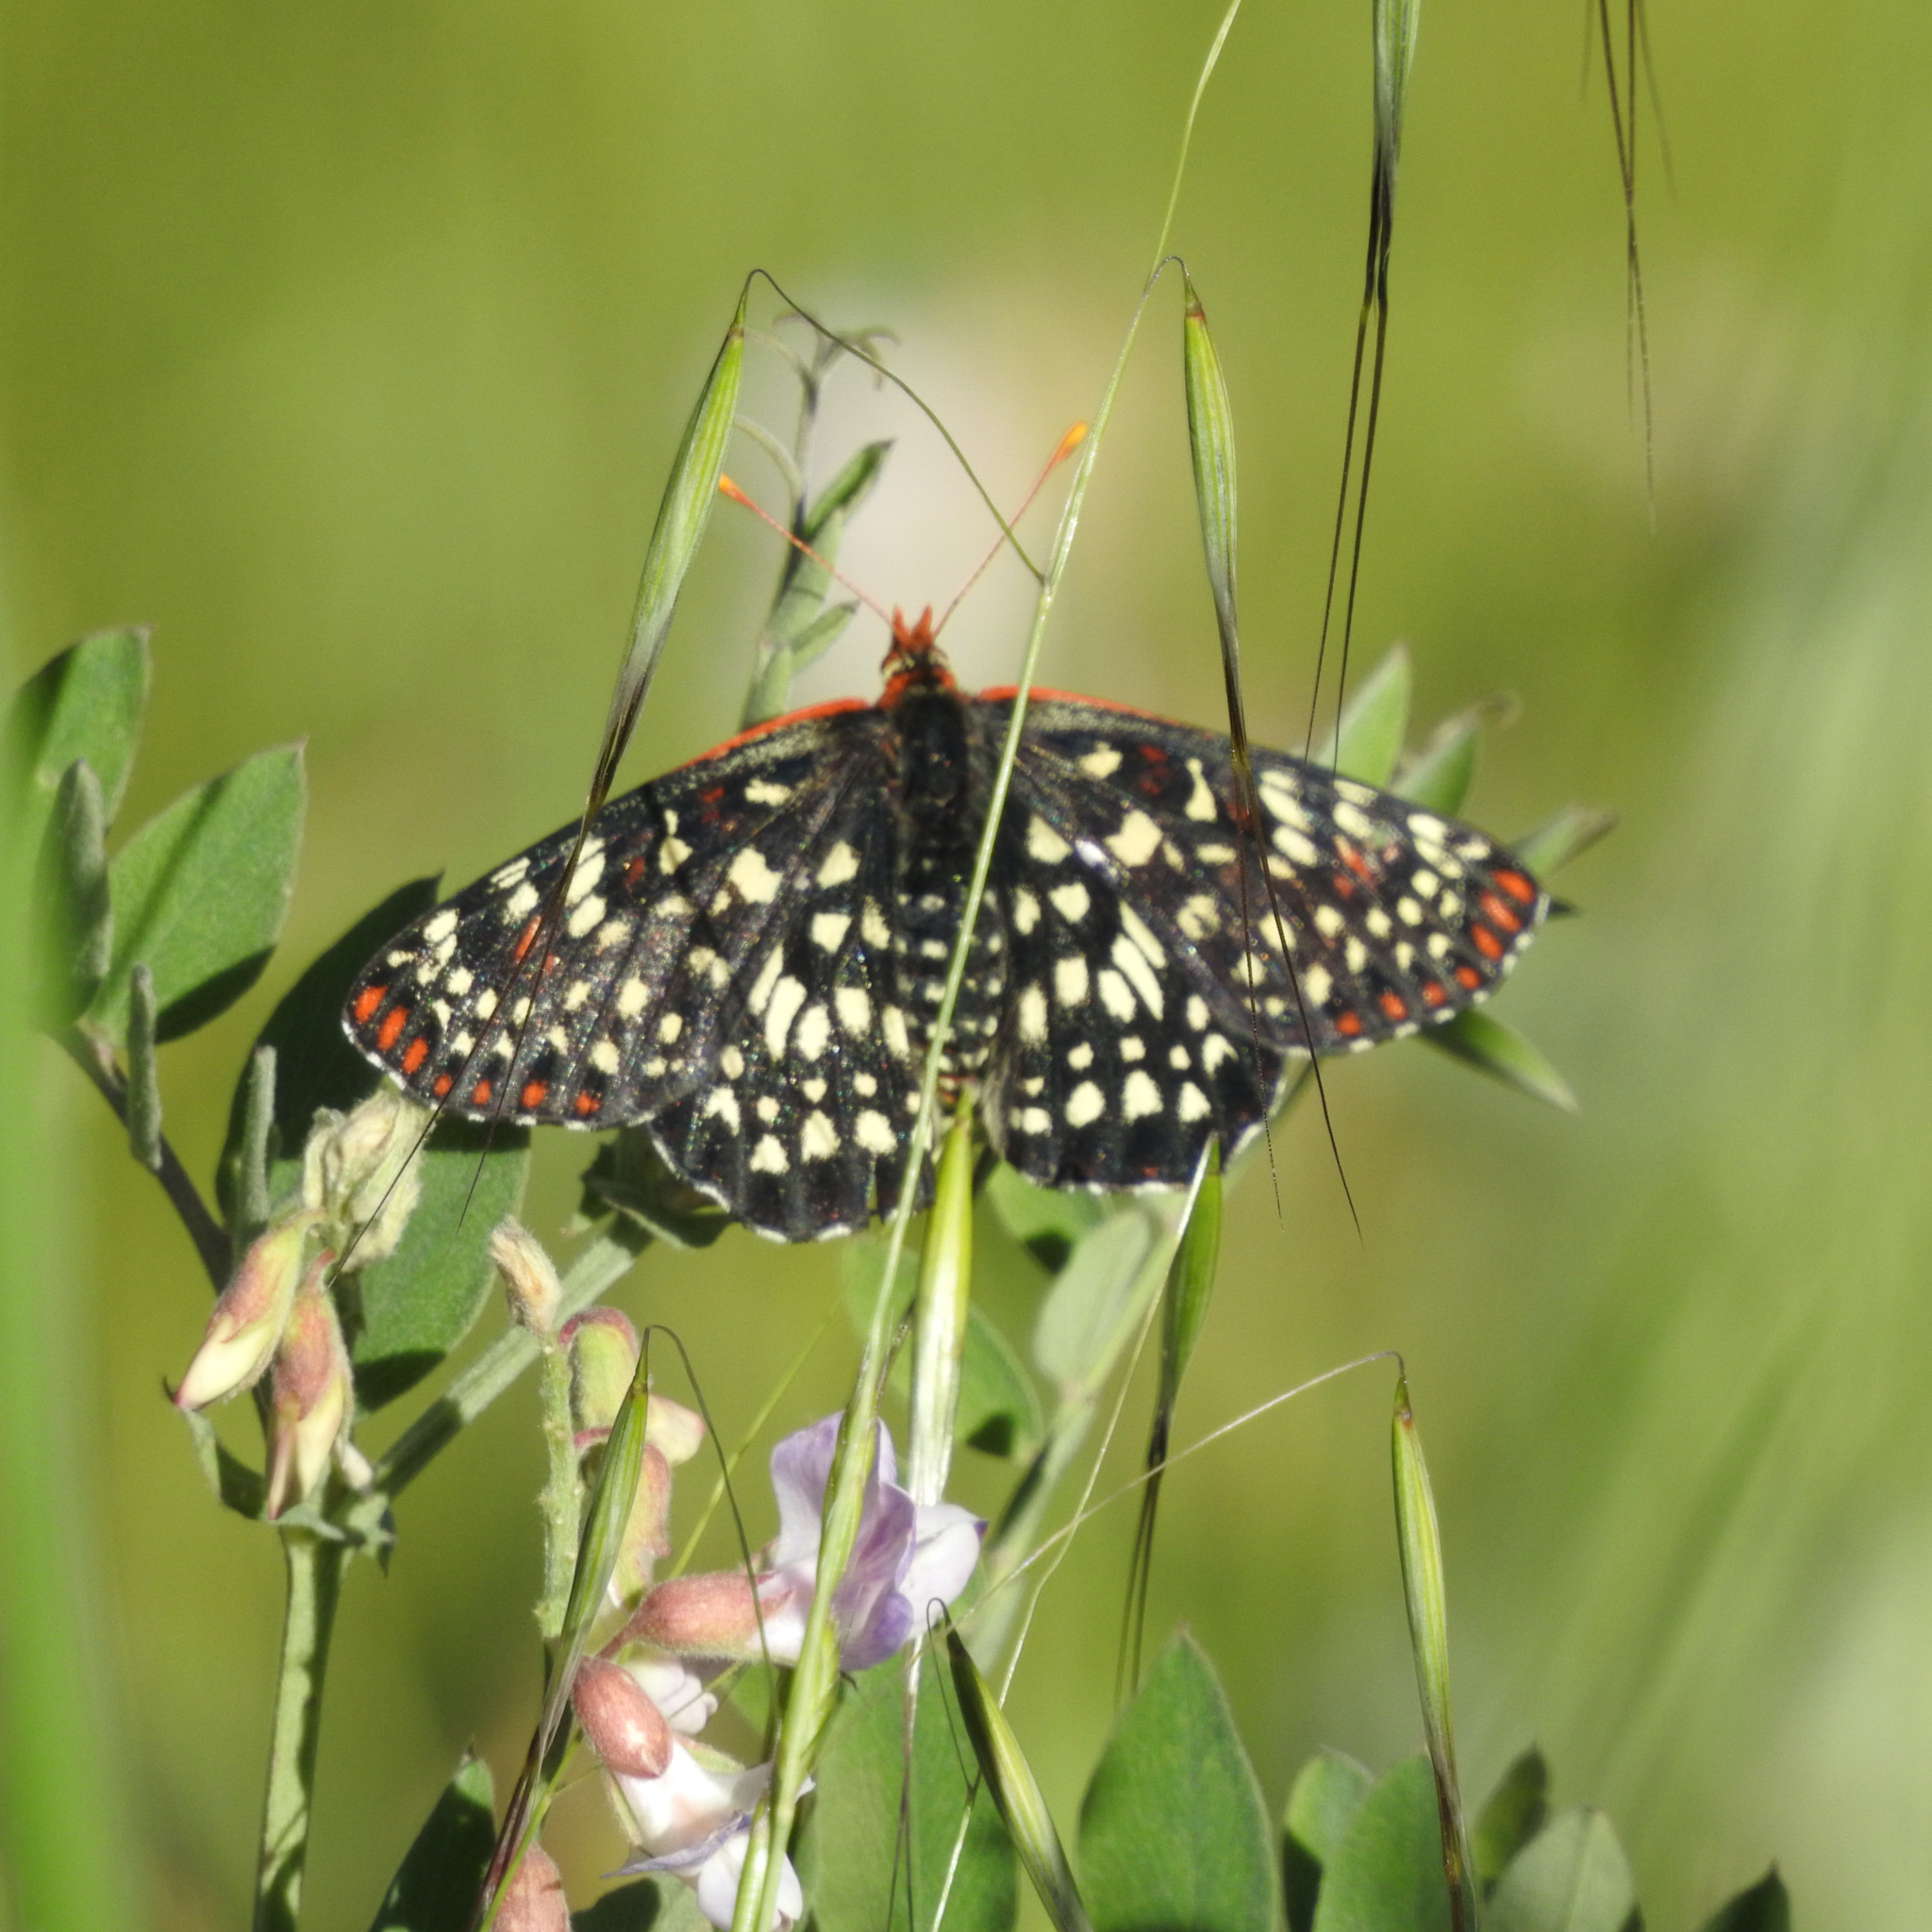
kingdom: Animalia
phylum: Arthropoda
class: Insecta
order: Lepidoptera
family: Nymphalidae
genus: Occidryas
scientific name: Occidryas chalcedona
